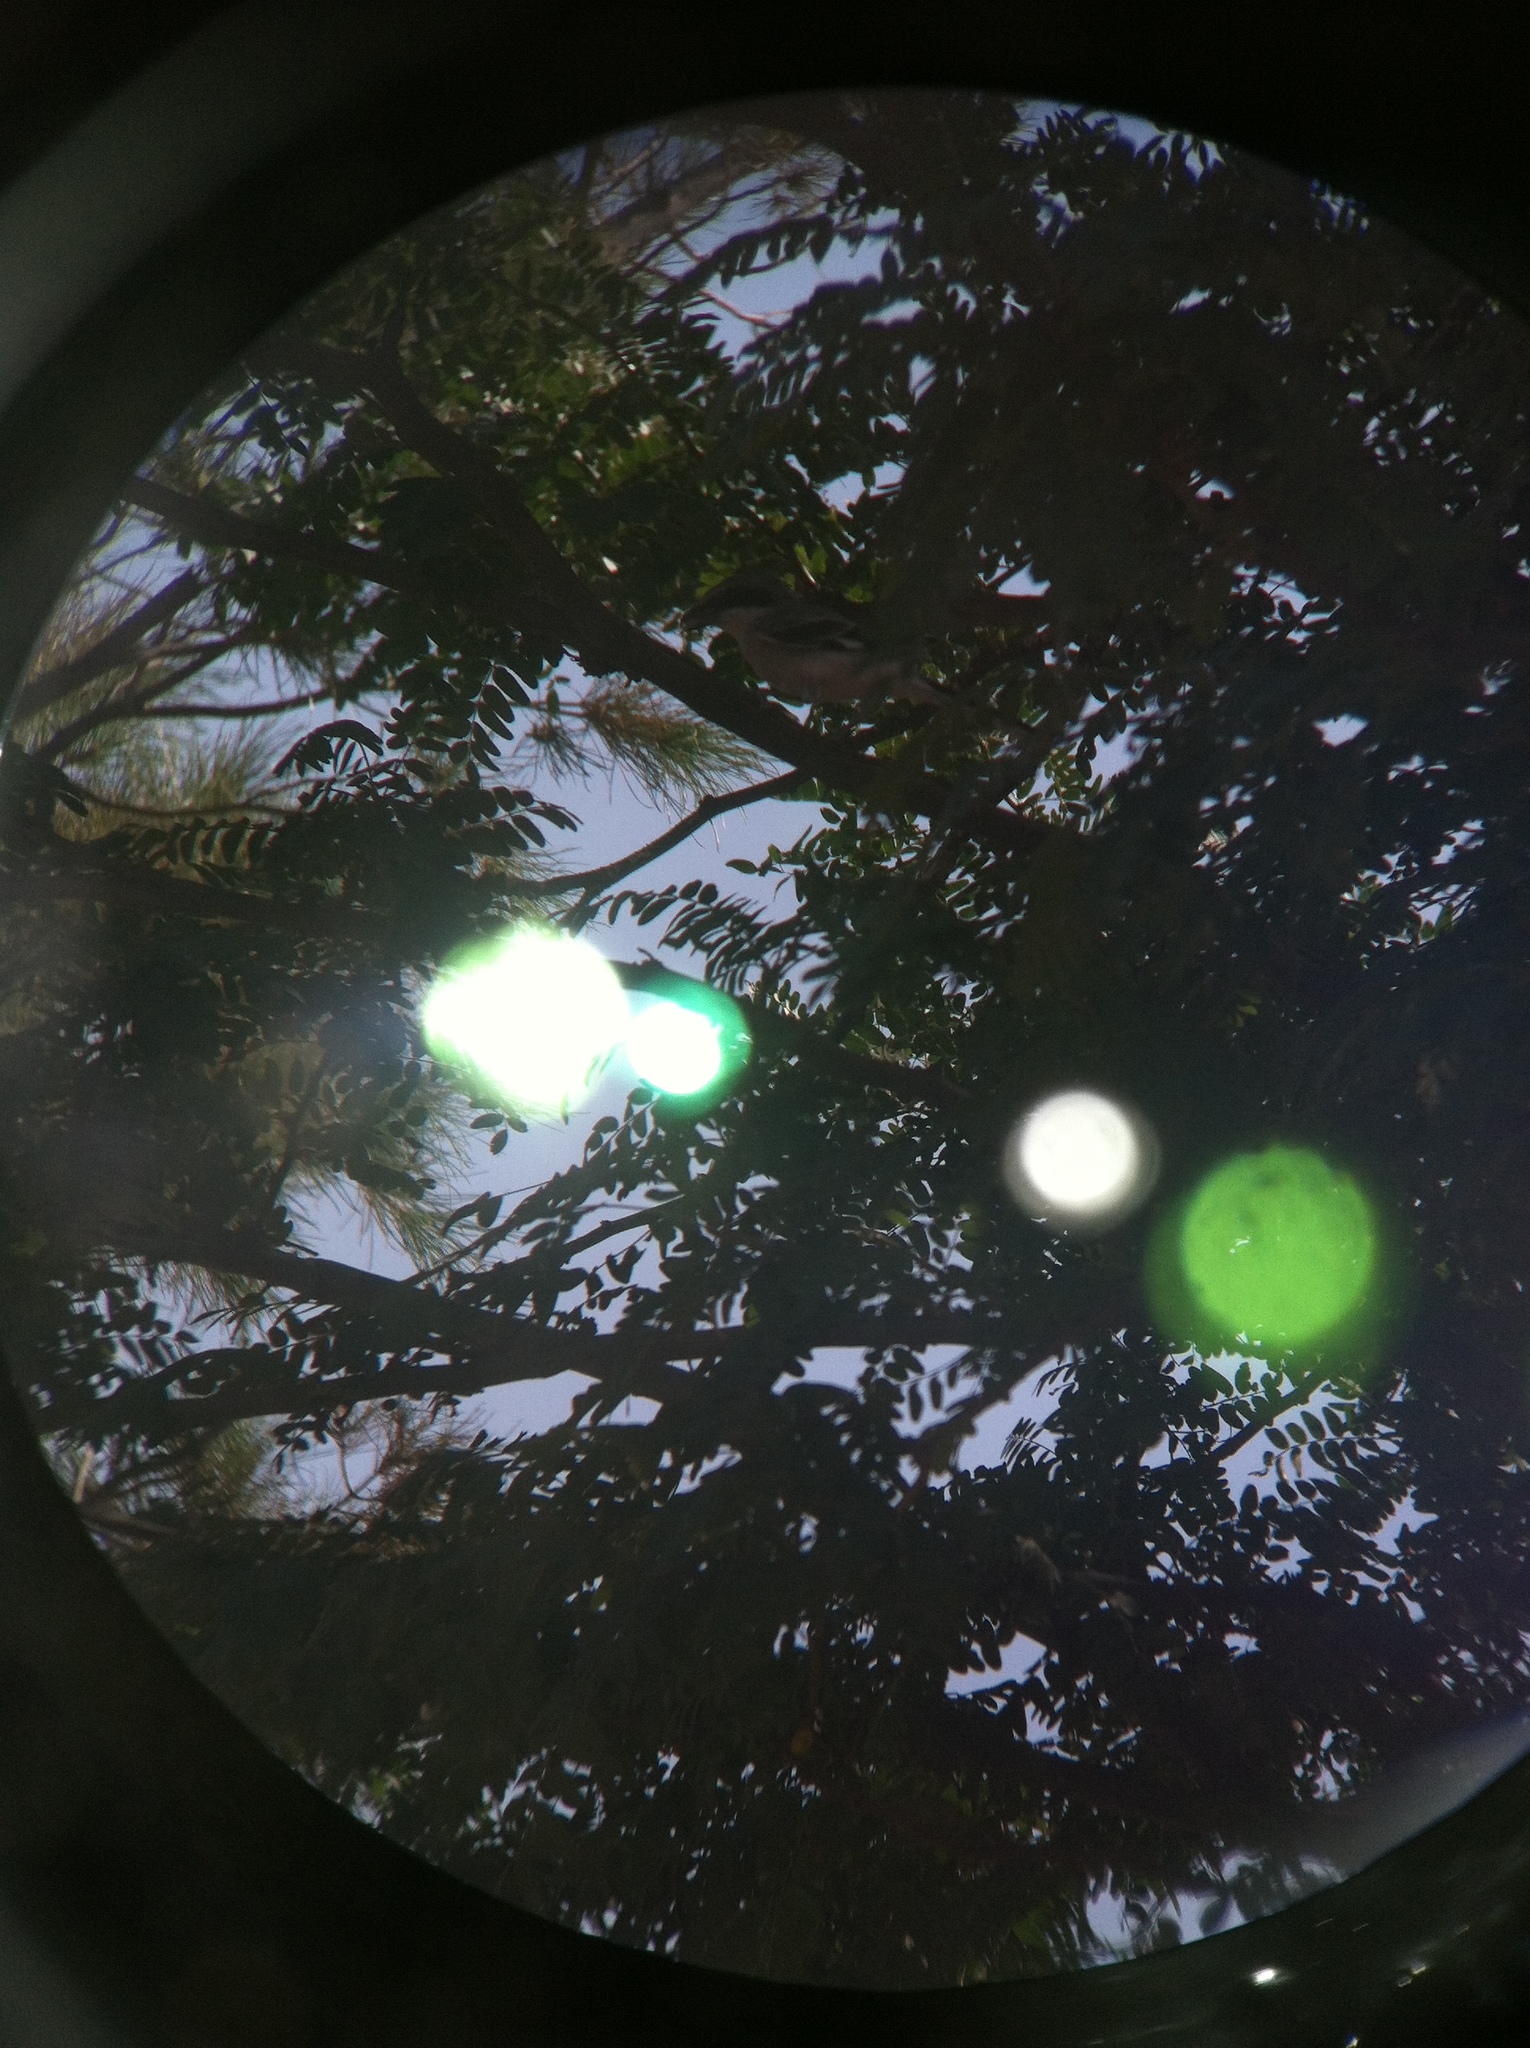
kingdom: Animalia
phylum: Chordata
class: Aves
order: Passeriformes
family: Laniidae
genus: Lanius
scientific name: Lanius ludovicianus
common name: Loggerhead shrike
